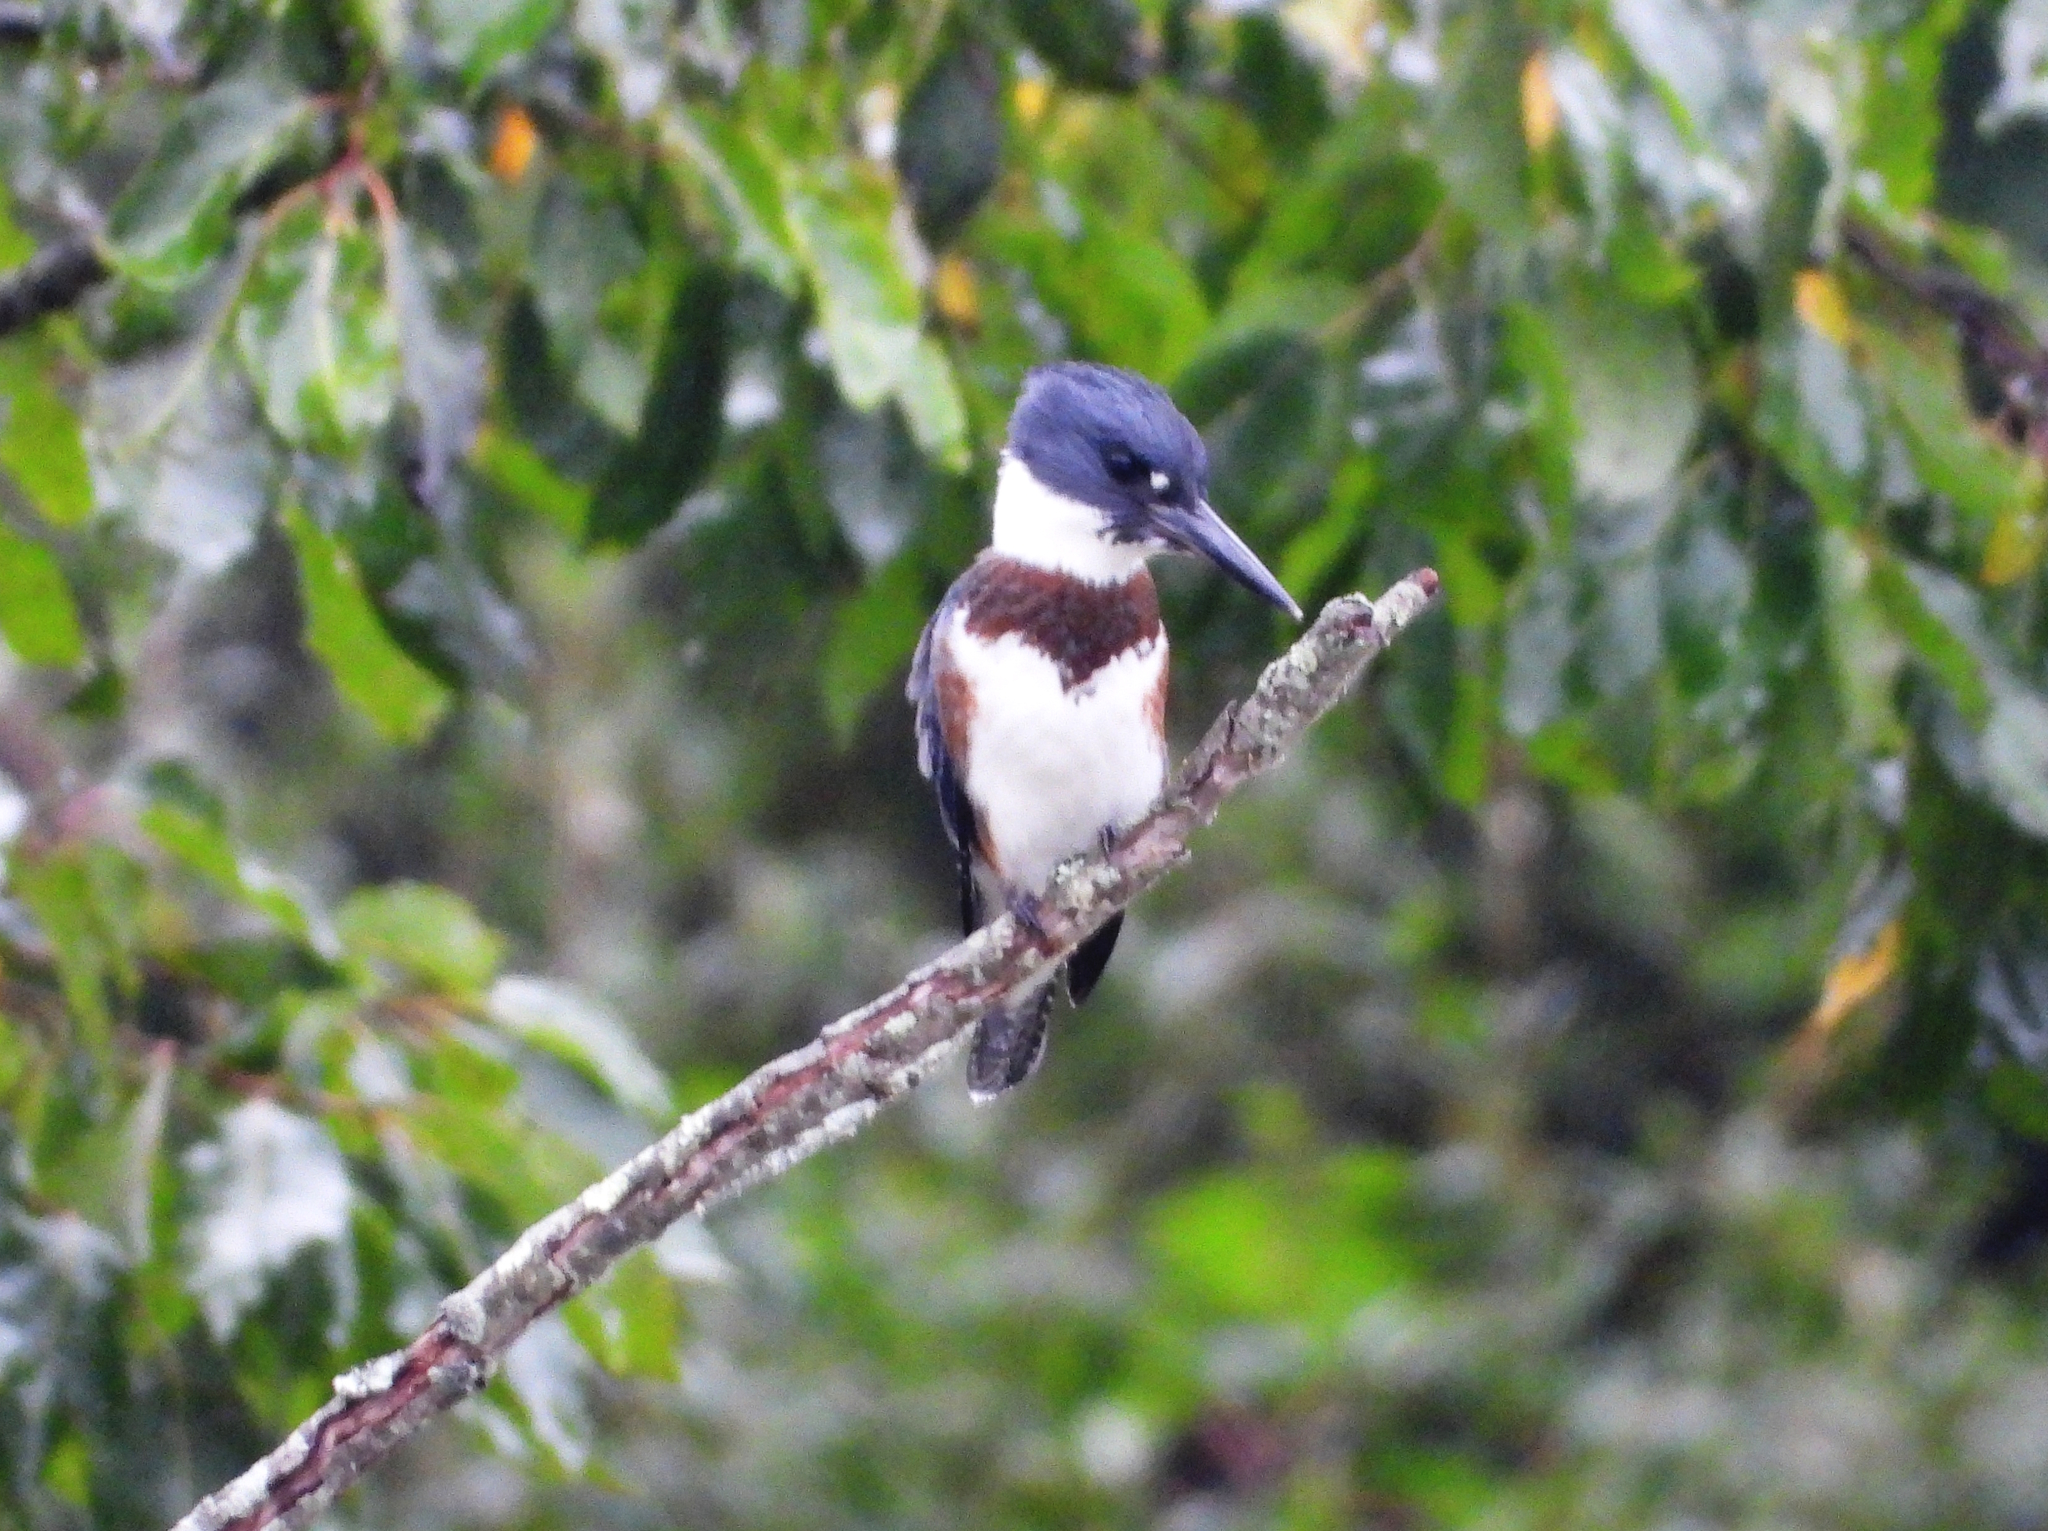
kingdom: Animalia
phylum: Chordata
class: Aves
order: Coraciiformes
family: Alcedinidae
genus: Megaceryle
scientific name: Megaceryle alcyon
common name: Belted kingfisher
